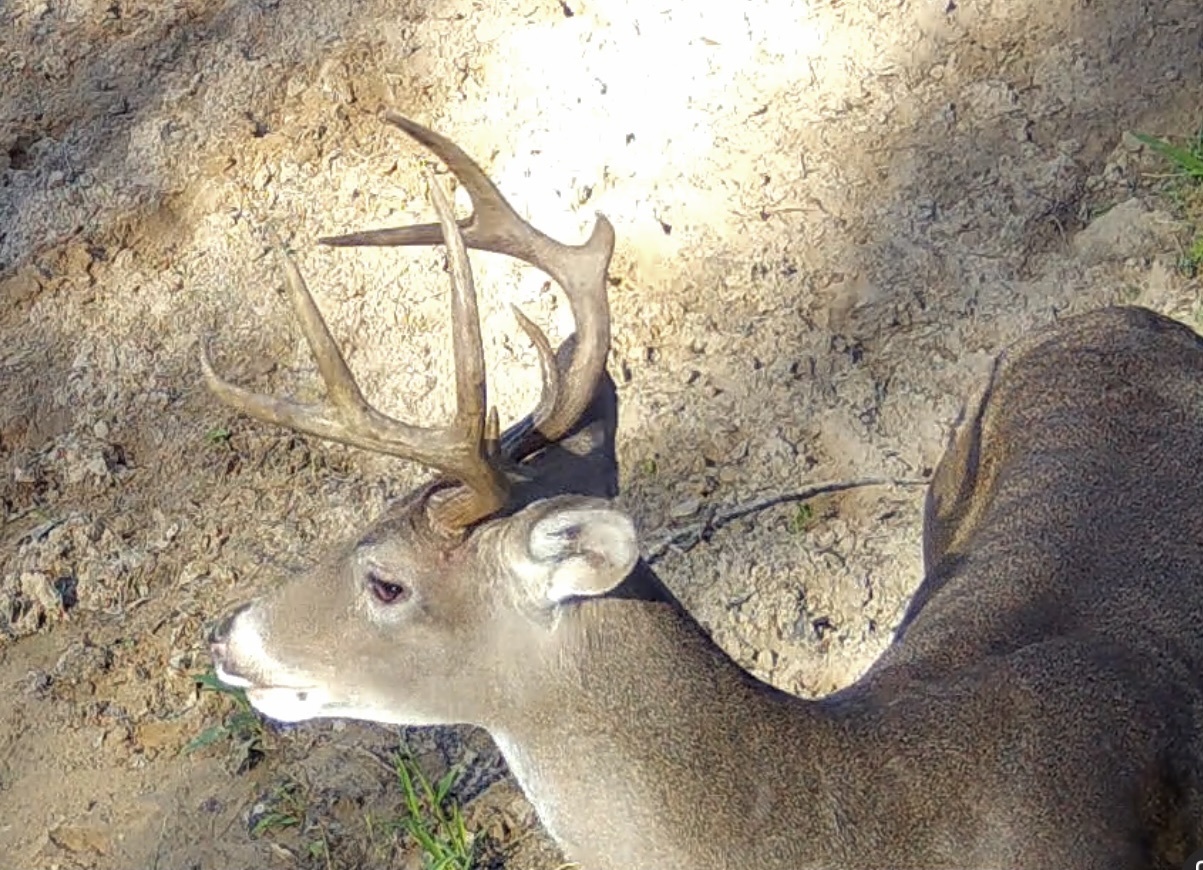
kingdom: Animalia
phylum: Chordata
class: Mammalia
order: Artiodactyla
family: Cervidae
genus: Odocoileus
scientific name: Odocoileus virginianus
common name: White-tailed deer
